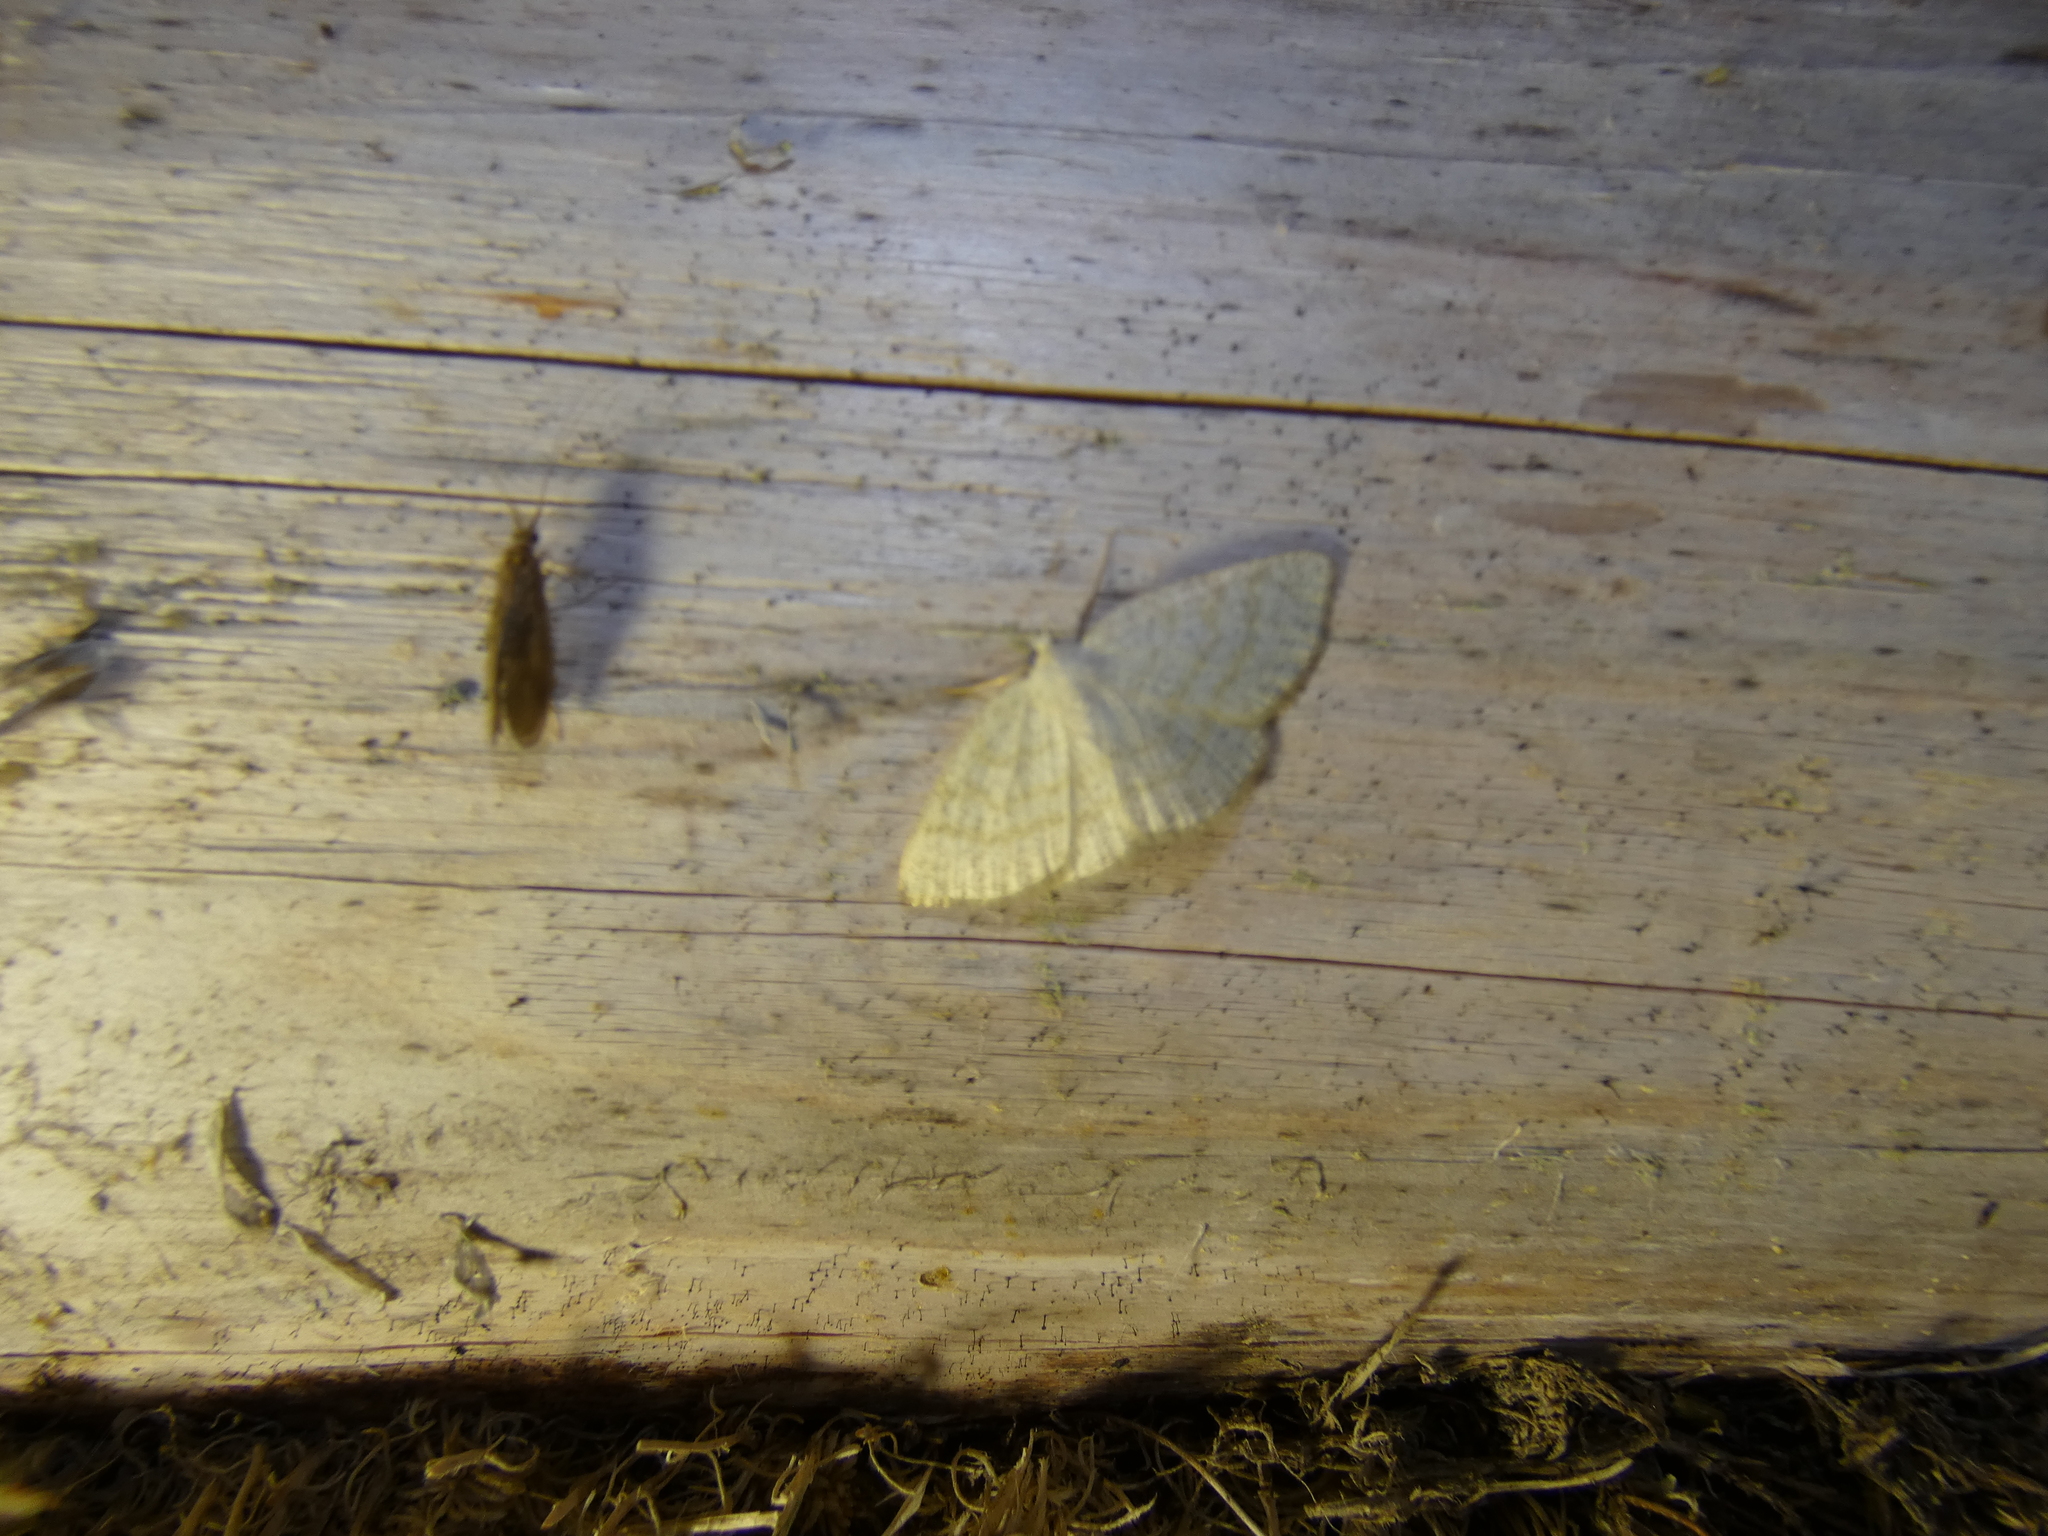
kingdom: Animalia
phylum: Arthropoda
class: Insecta
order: Lepidoptera
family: Geometridae
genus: Cabera
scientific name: Cabera exanthemata
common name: Common wave
